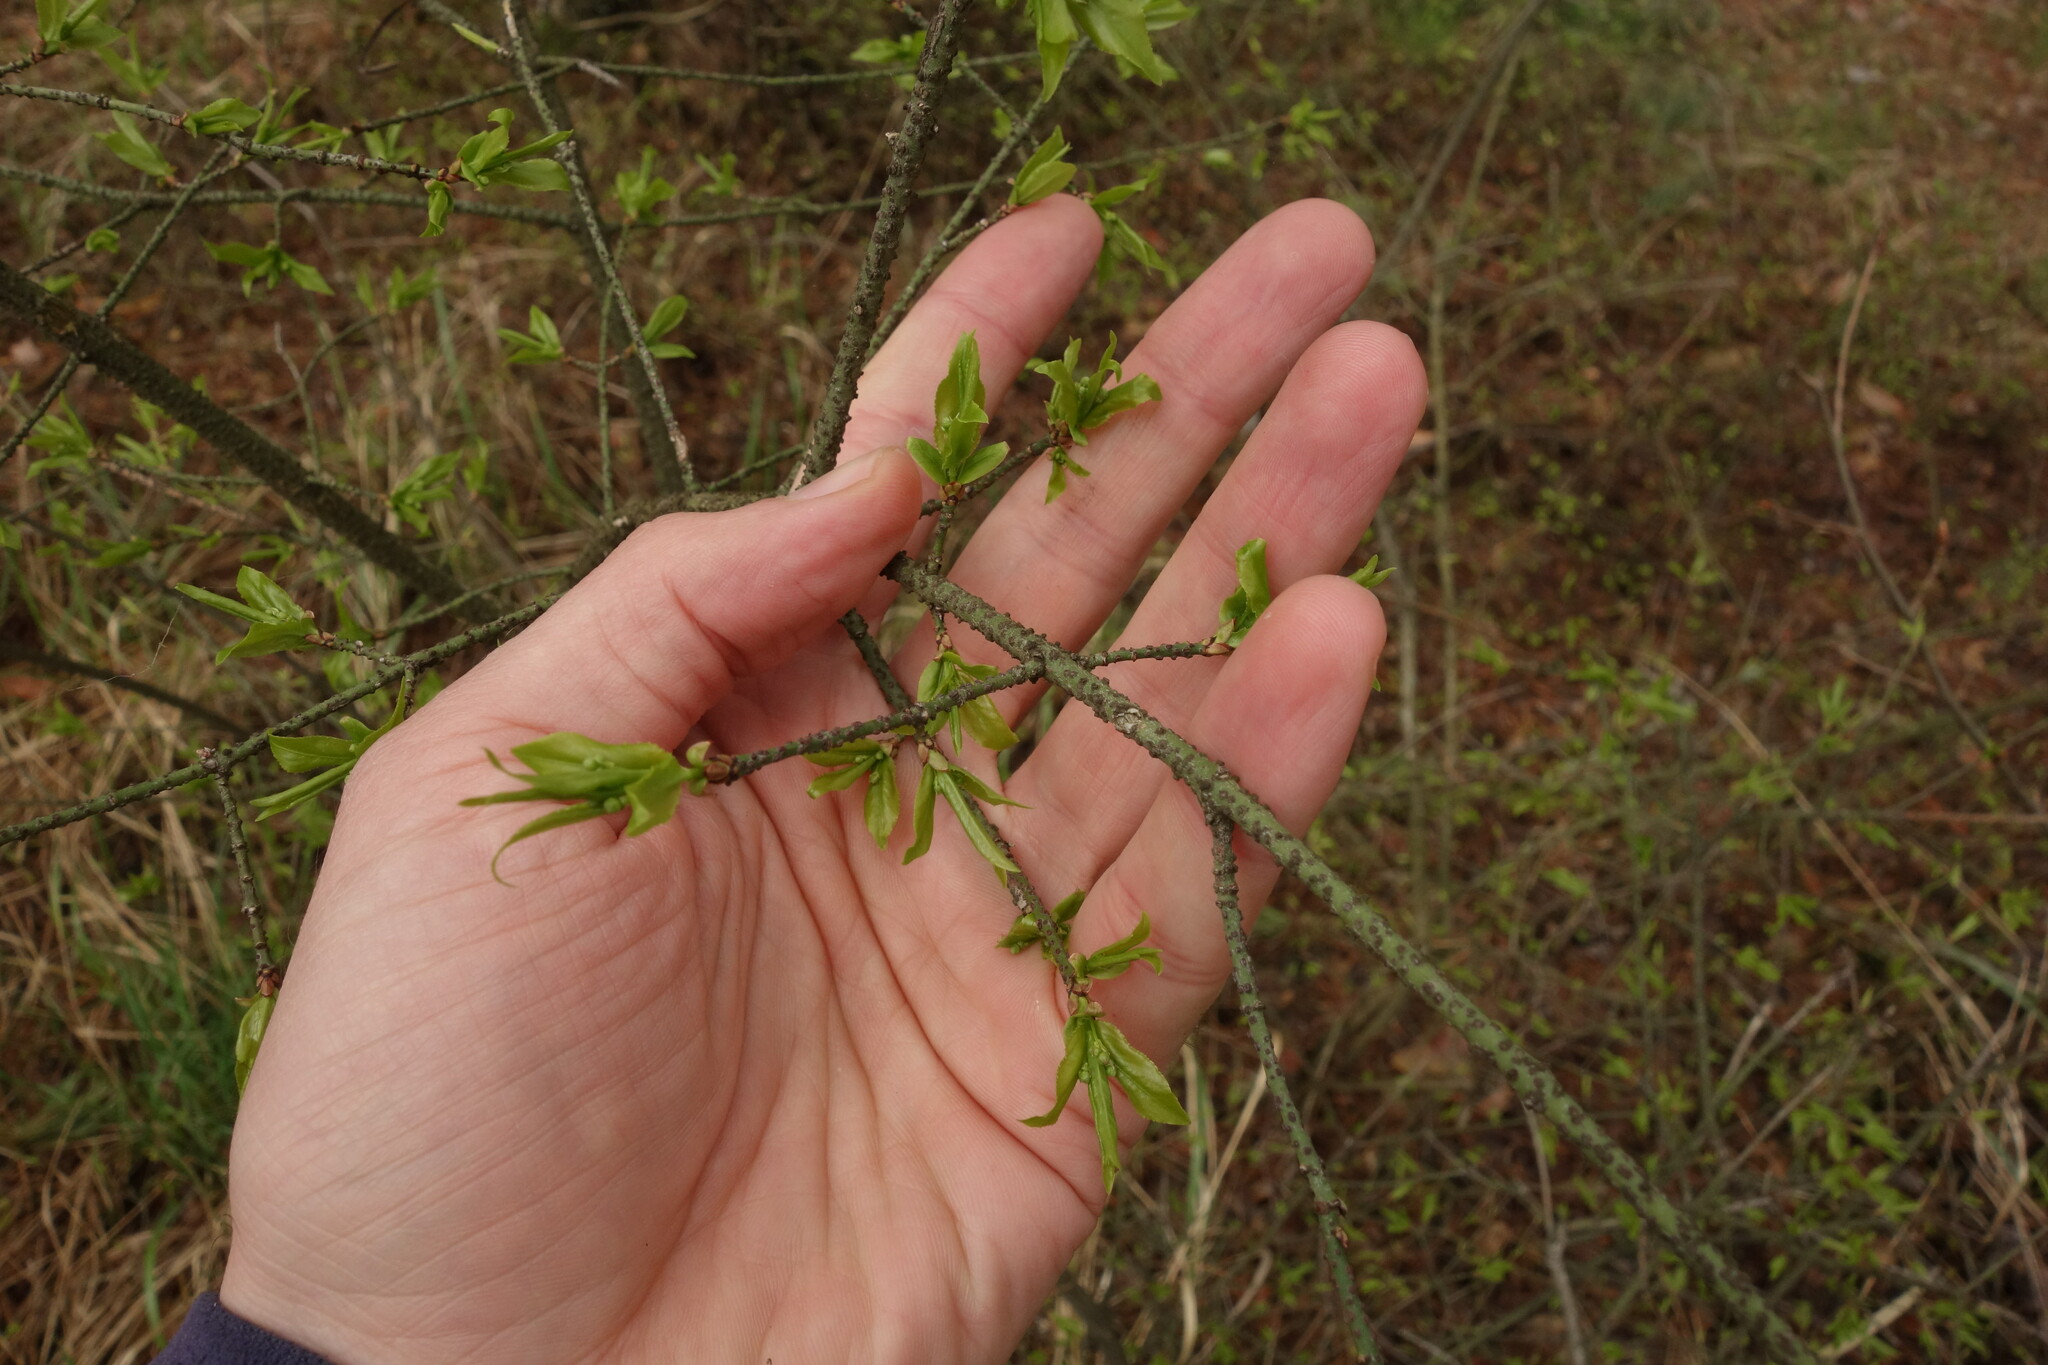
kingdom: Plantae
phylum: Tracheophyta
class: Magnoliopsida
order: Celastrales
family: Celastraceae
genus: Euonymus
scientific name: Euonymus verrucosus
